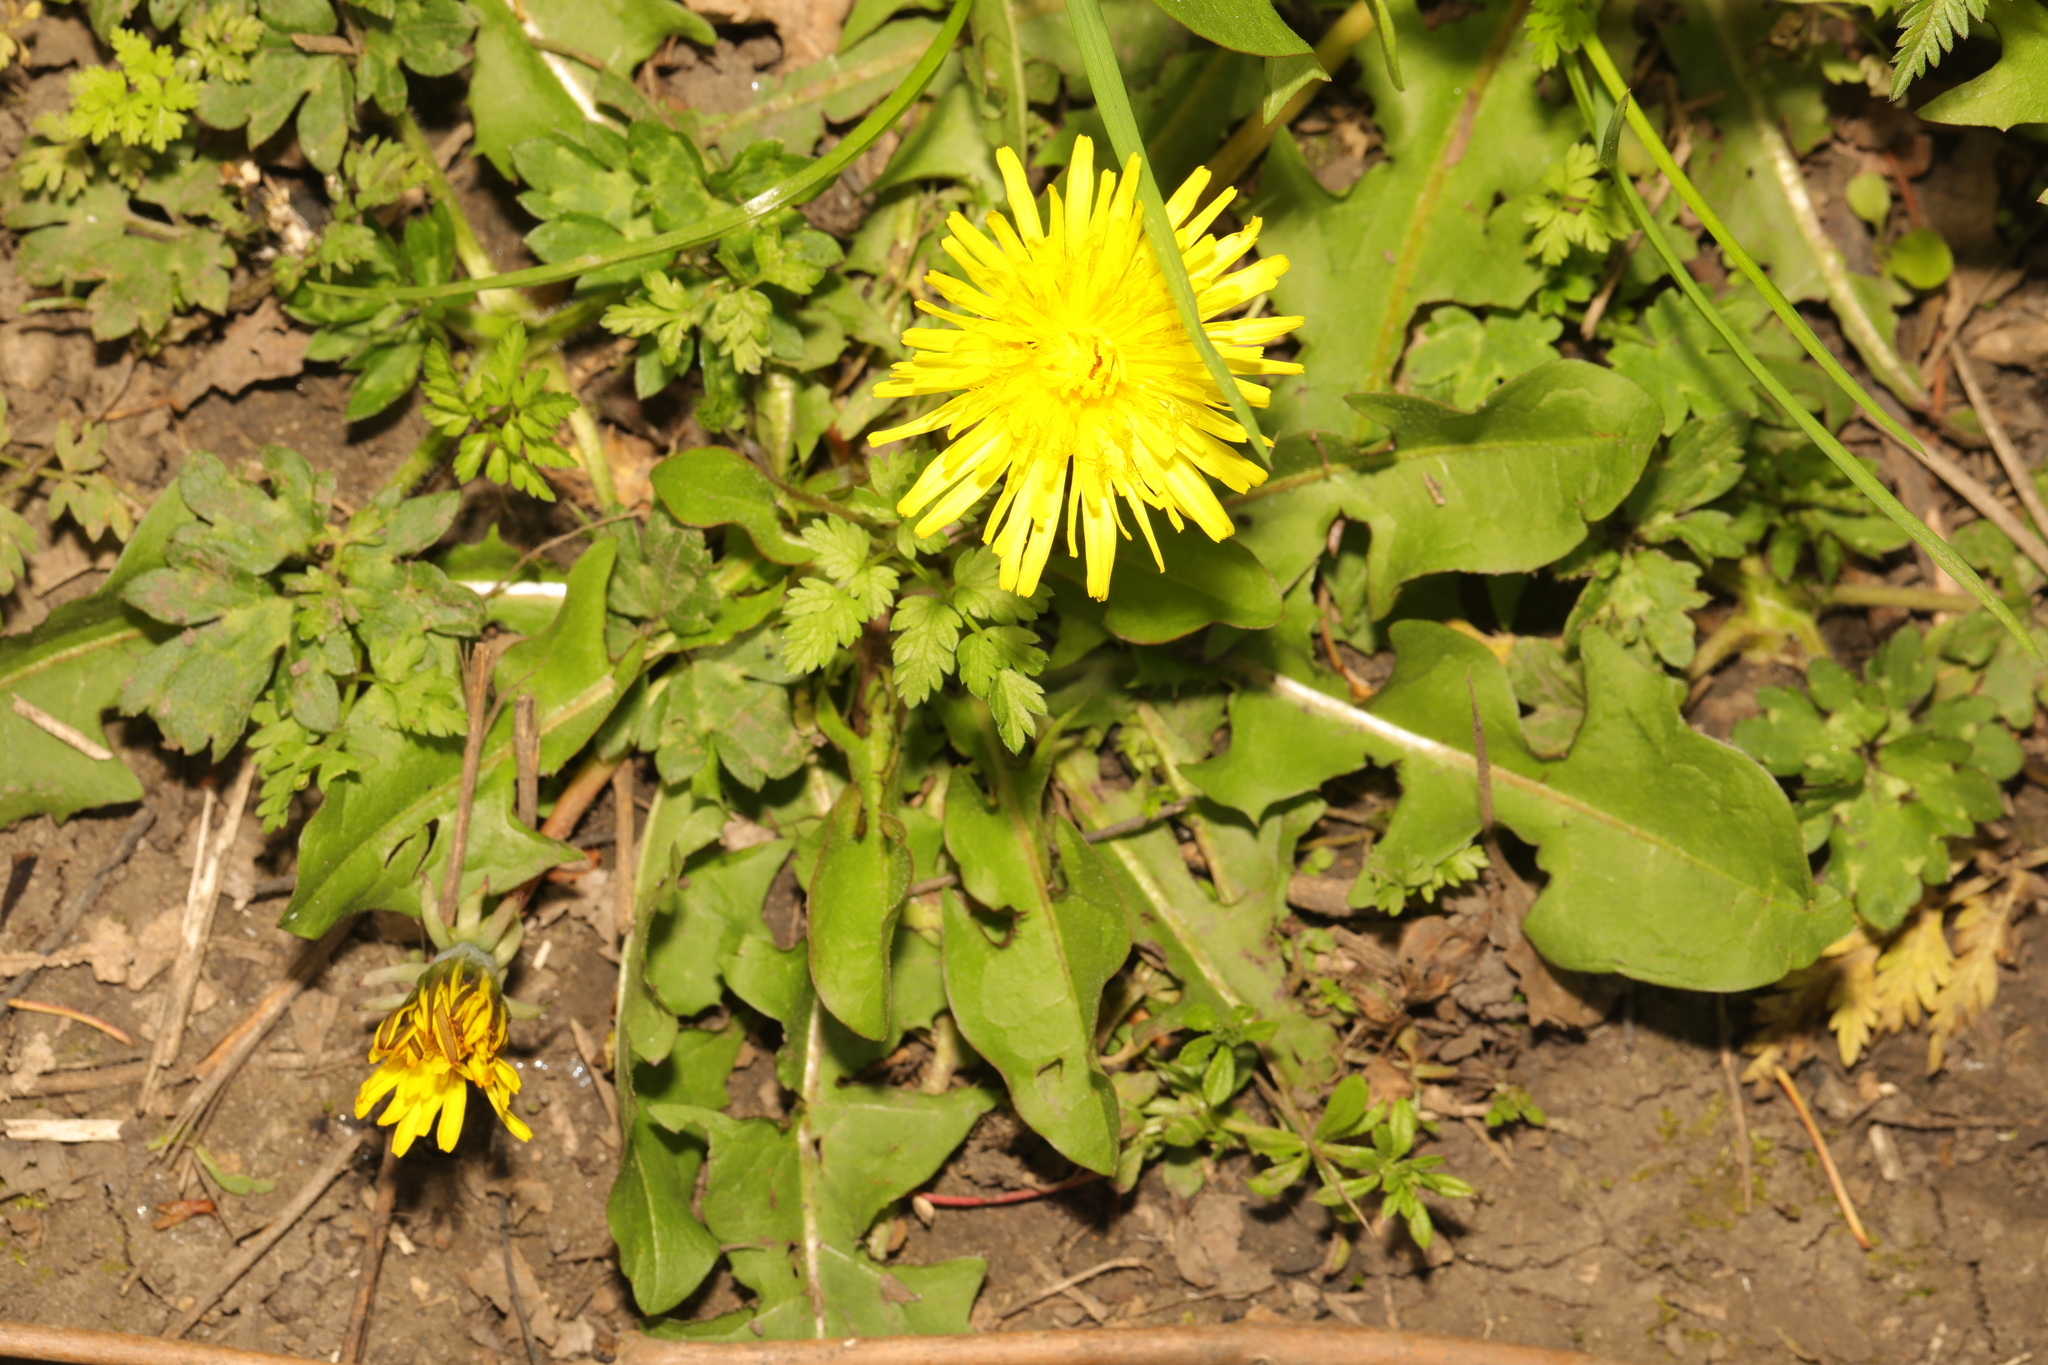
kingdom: Plantae
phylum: Tracheophyta
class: Magnoliopsida
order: Asterales
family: Asteraceae
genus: Taraxacum
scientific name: Taraxacum officinale
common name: Common dandelion
